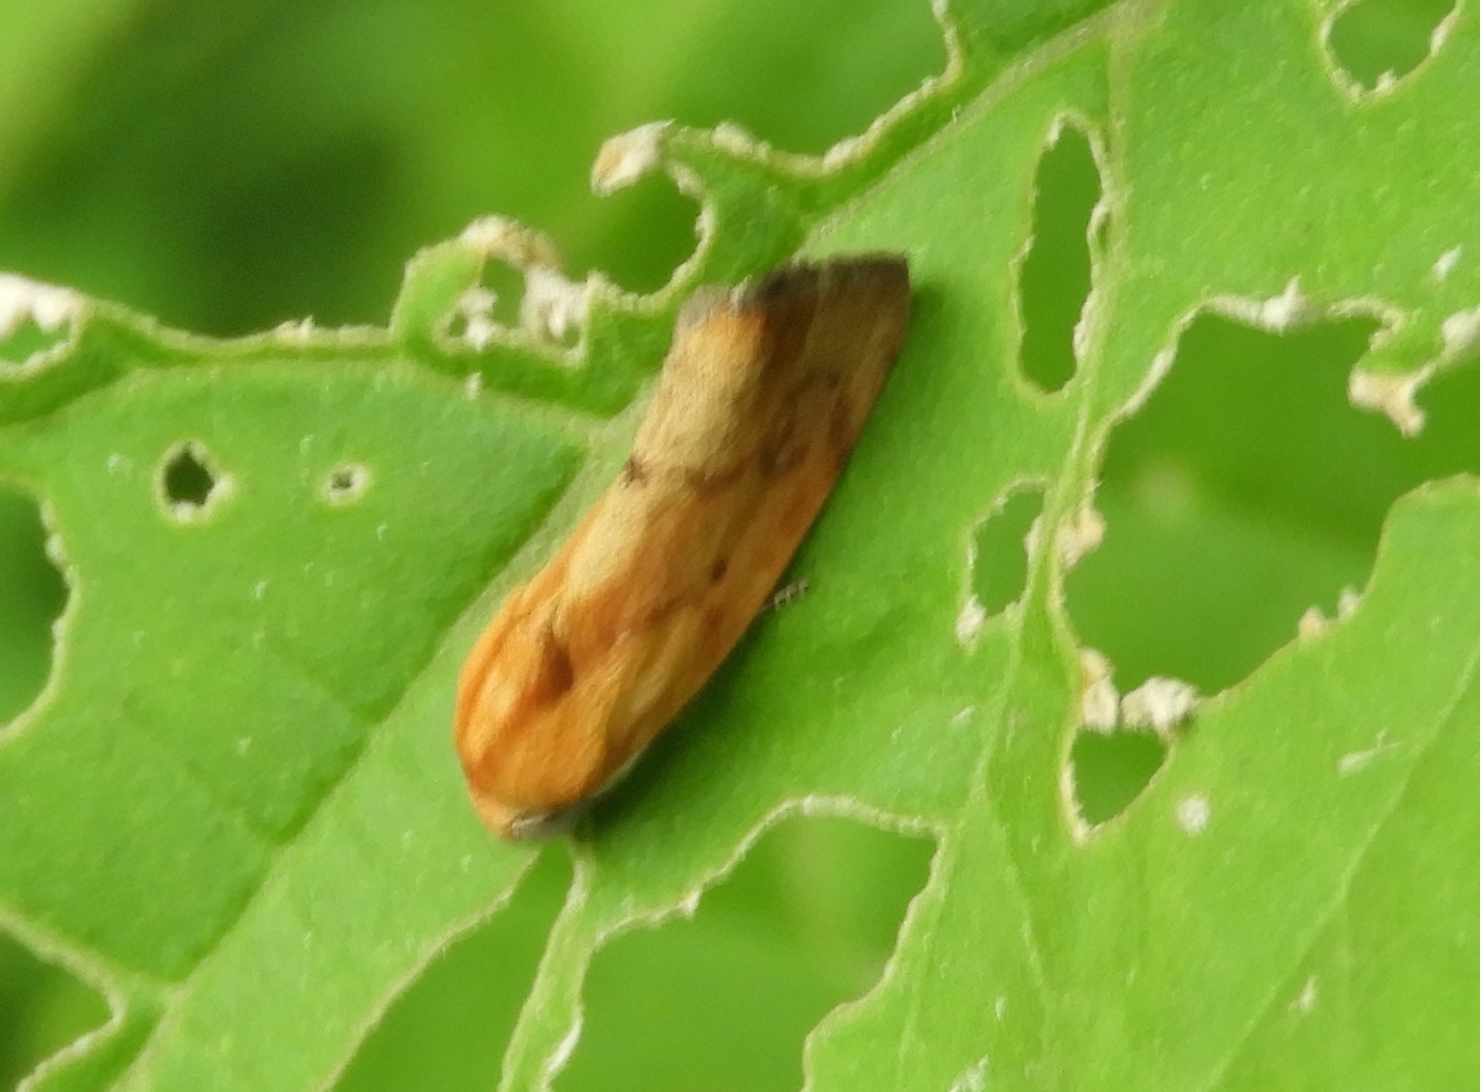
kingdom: Animalia
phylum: Arthropoda
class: Insecta
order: Lepidoptera
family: Noctuidae
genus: Acontia
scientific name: Acontia exigua
